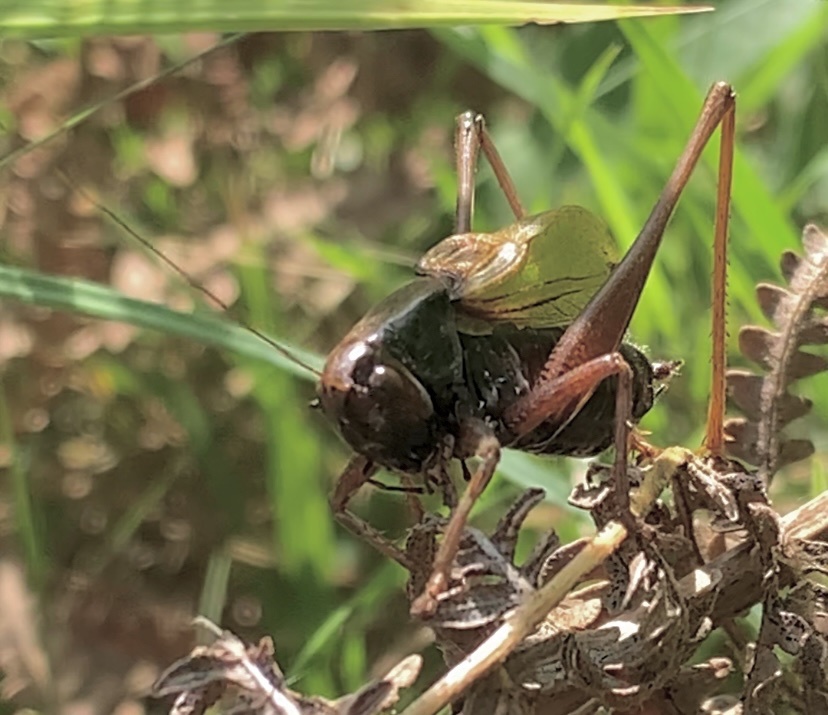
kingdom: Animalia
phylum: Arthropoda
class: Insecta
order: Orthoptera
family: Tettigoniidae
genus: Zeuneriana
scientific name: Zeuneriana abbreviata
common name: Basque bush-cricket
